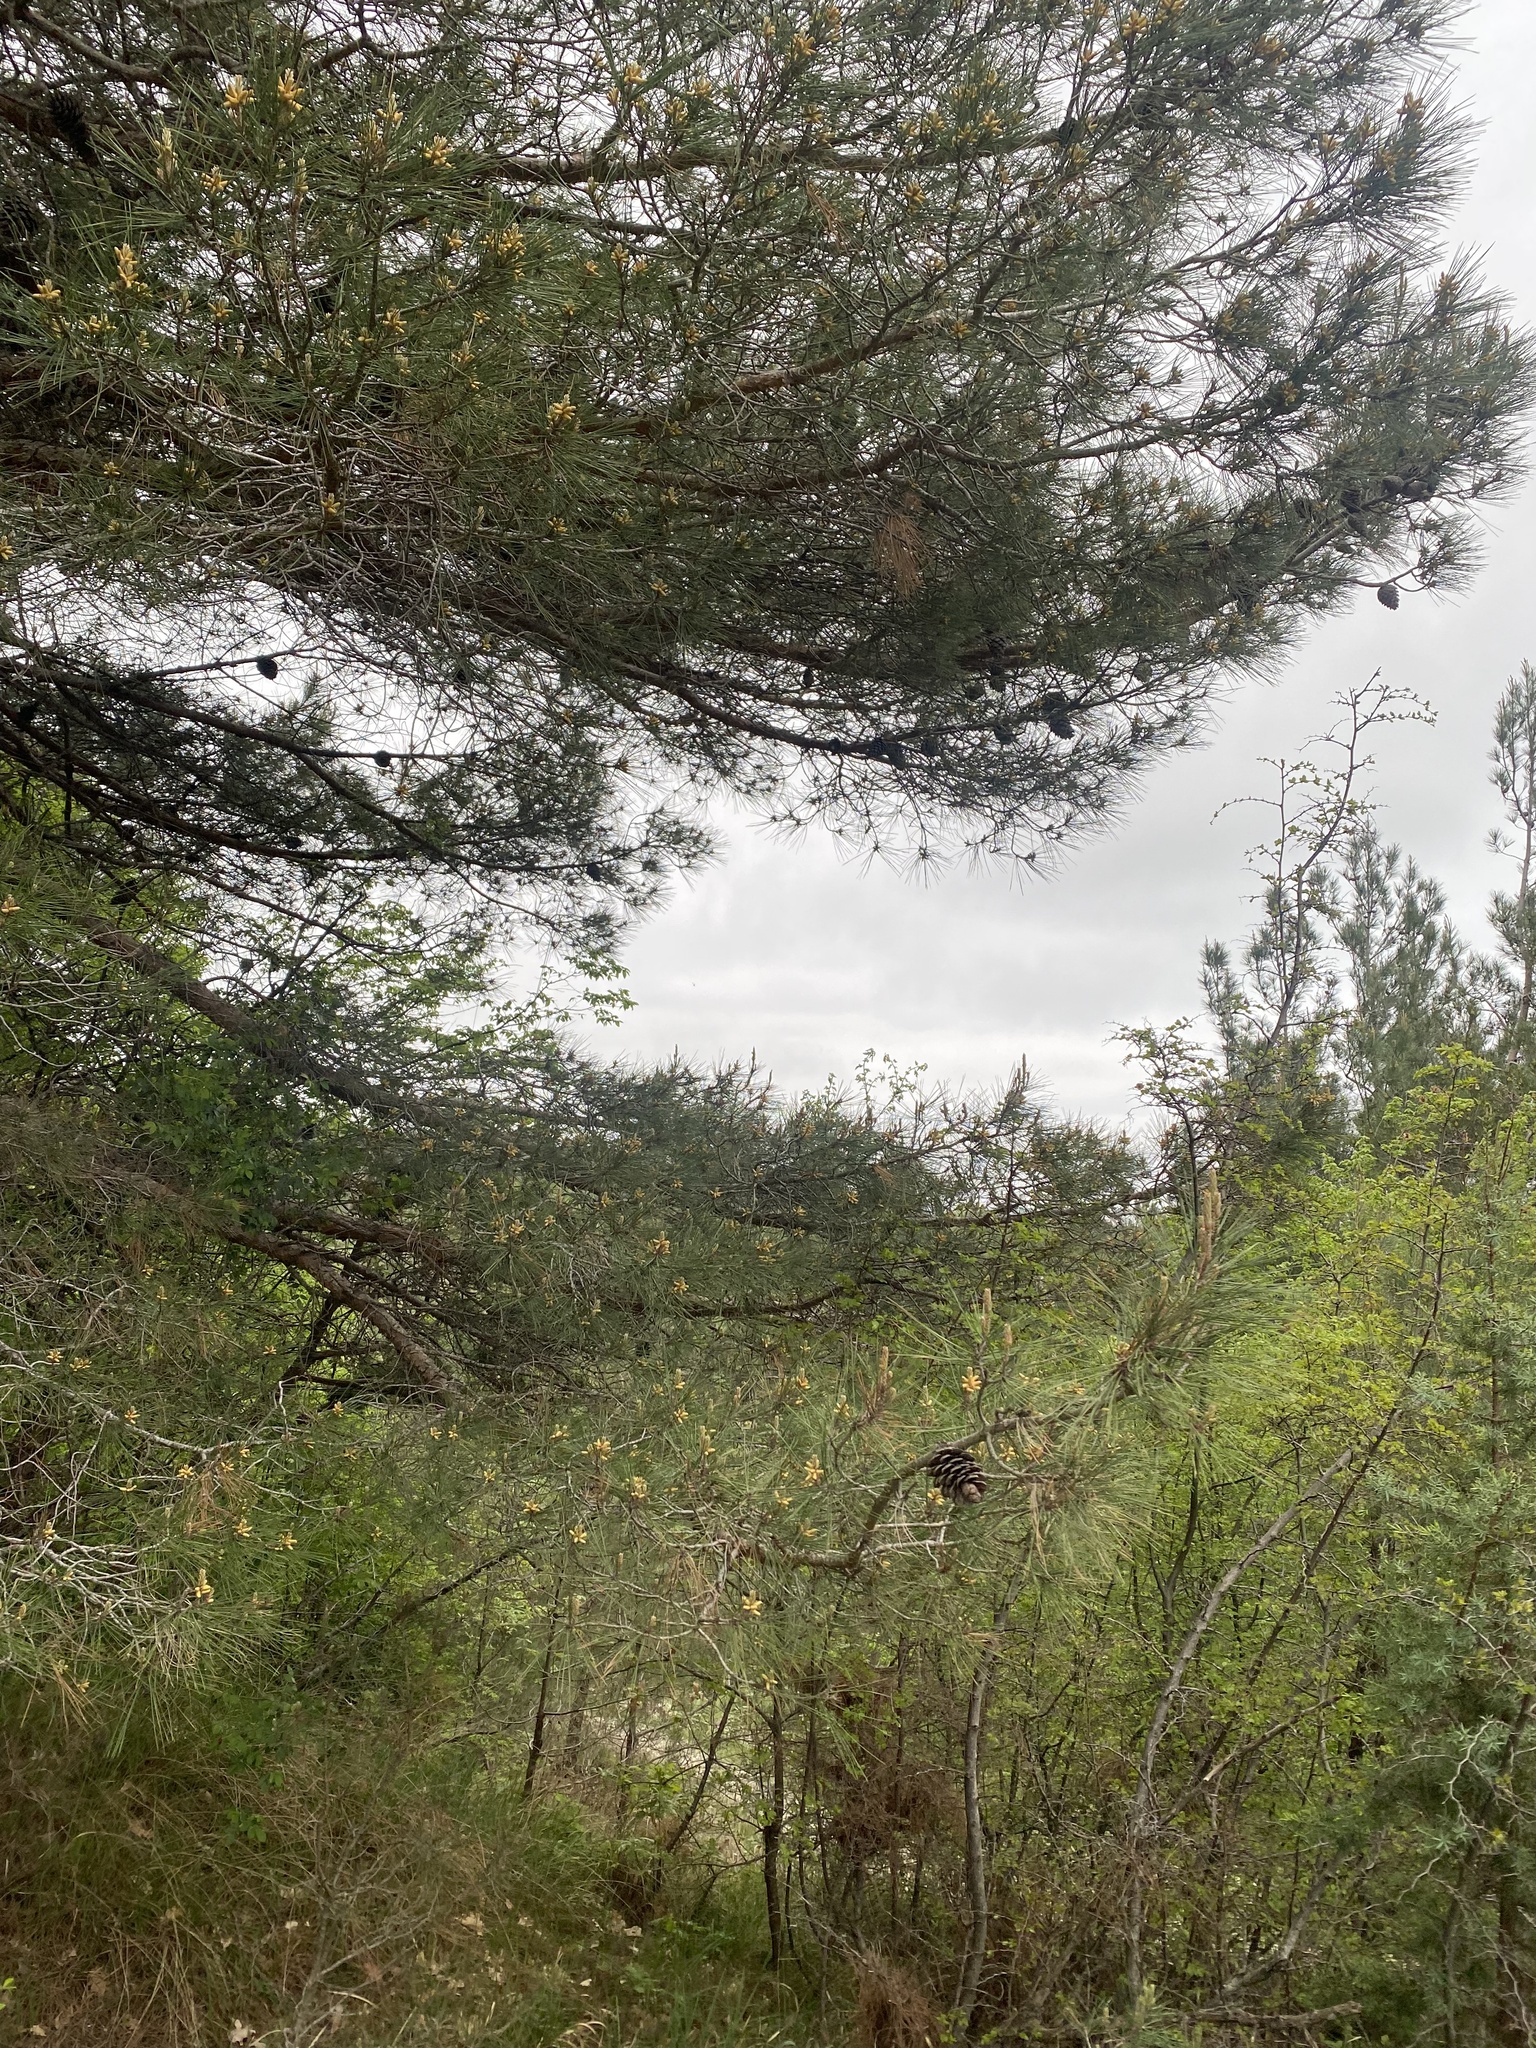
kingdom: Plantae
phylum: Tracheophyta
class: Pinopsida
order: Pinales
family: Pinaceae
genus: Pinus
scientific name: Pinus brutia
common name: Turkish pine
